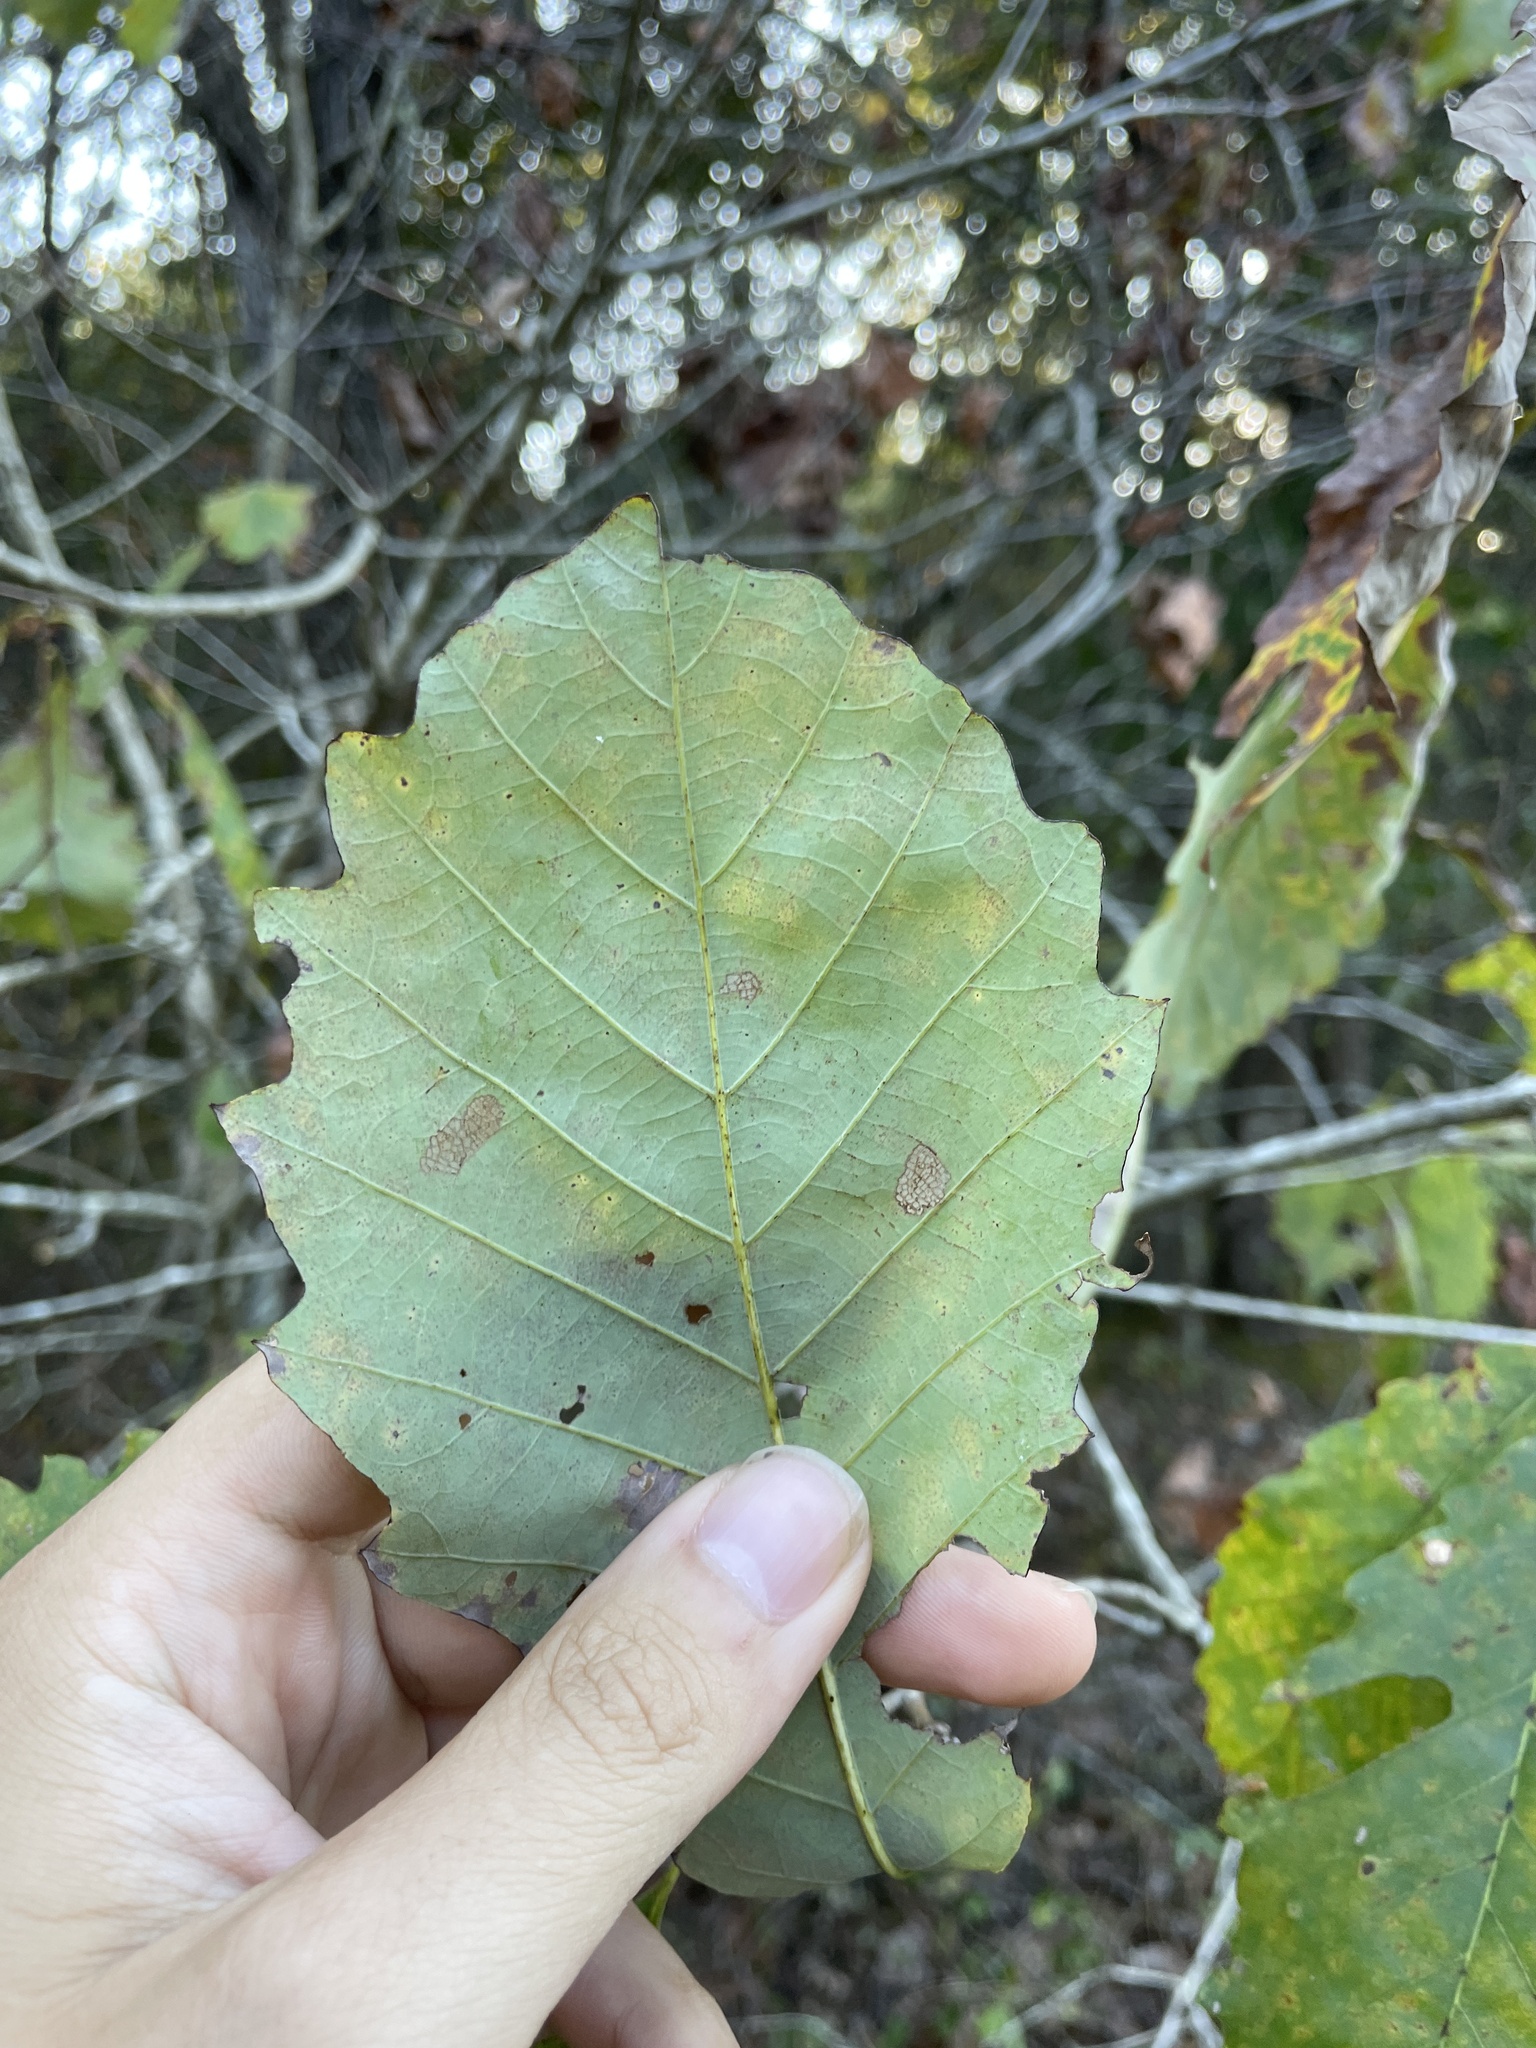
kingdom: Plantae
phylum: Tracheophyta
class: Magnoliopsida
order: Fagales
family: Fagaceae
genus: Quercus
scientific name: Quercus muehlenbergii
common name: Chinkapin oak
